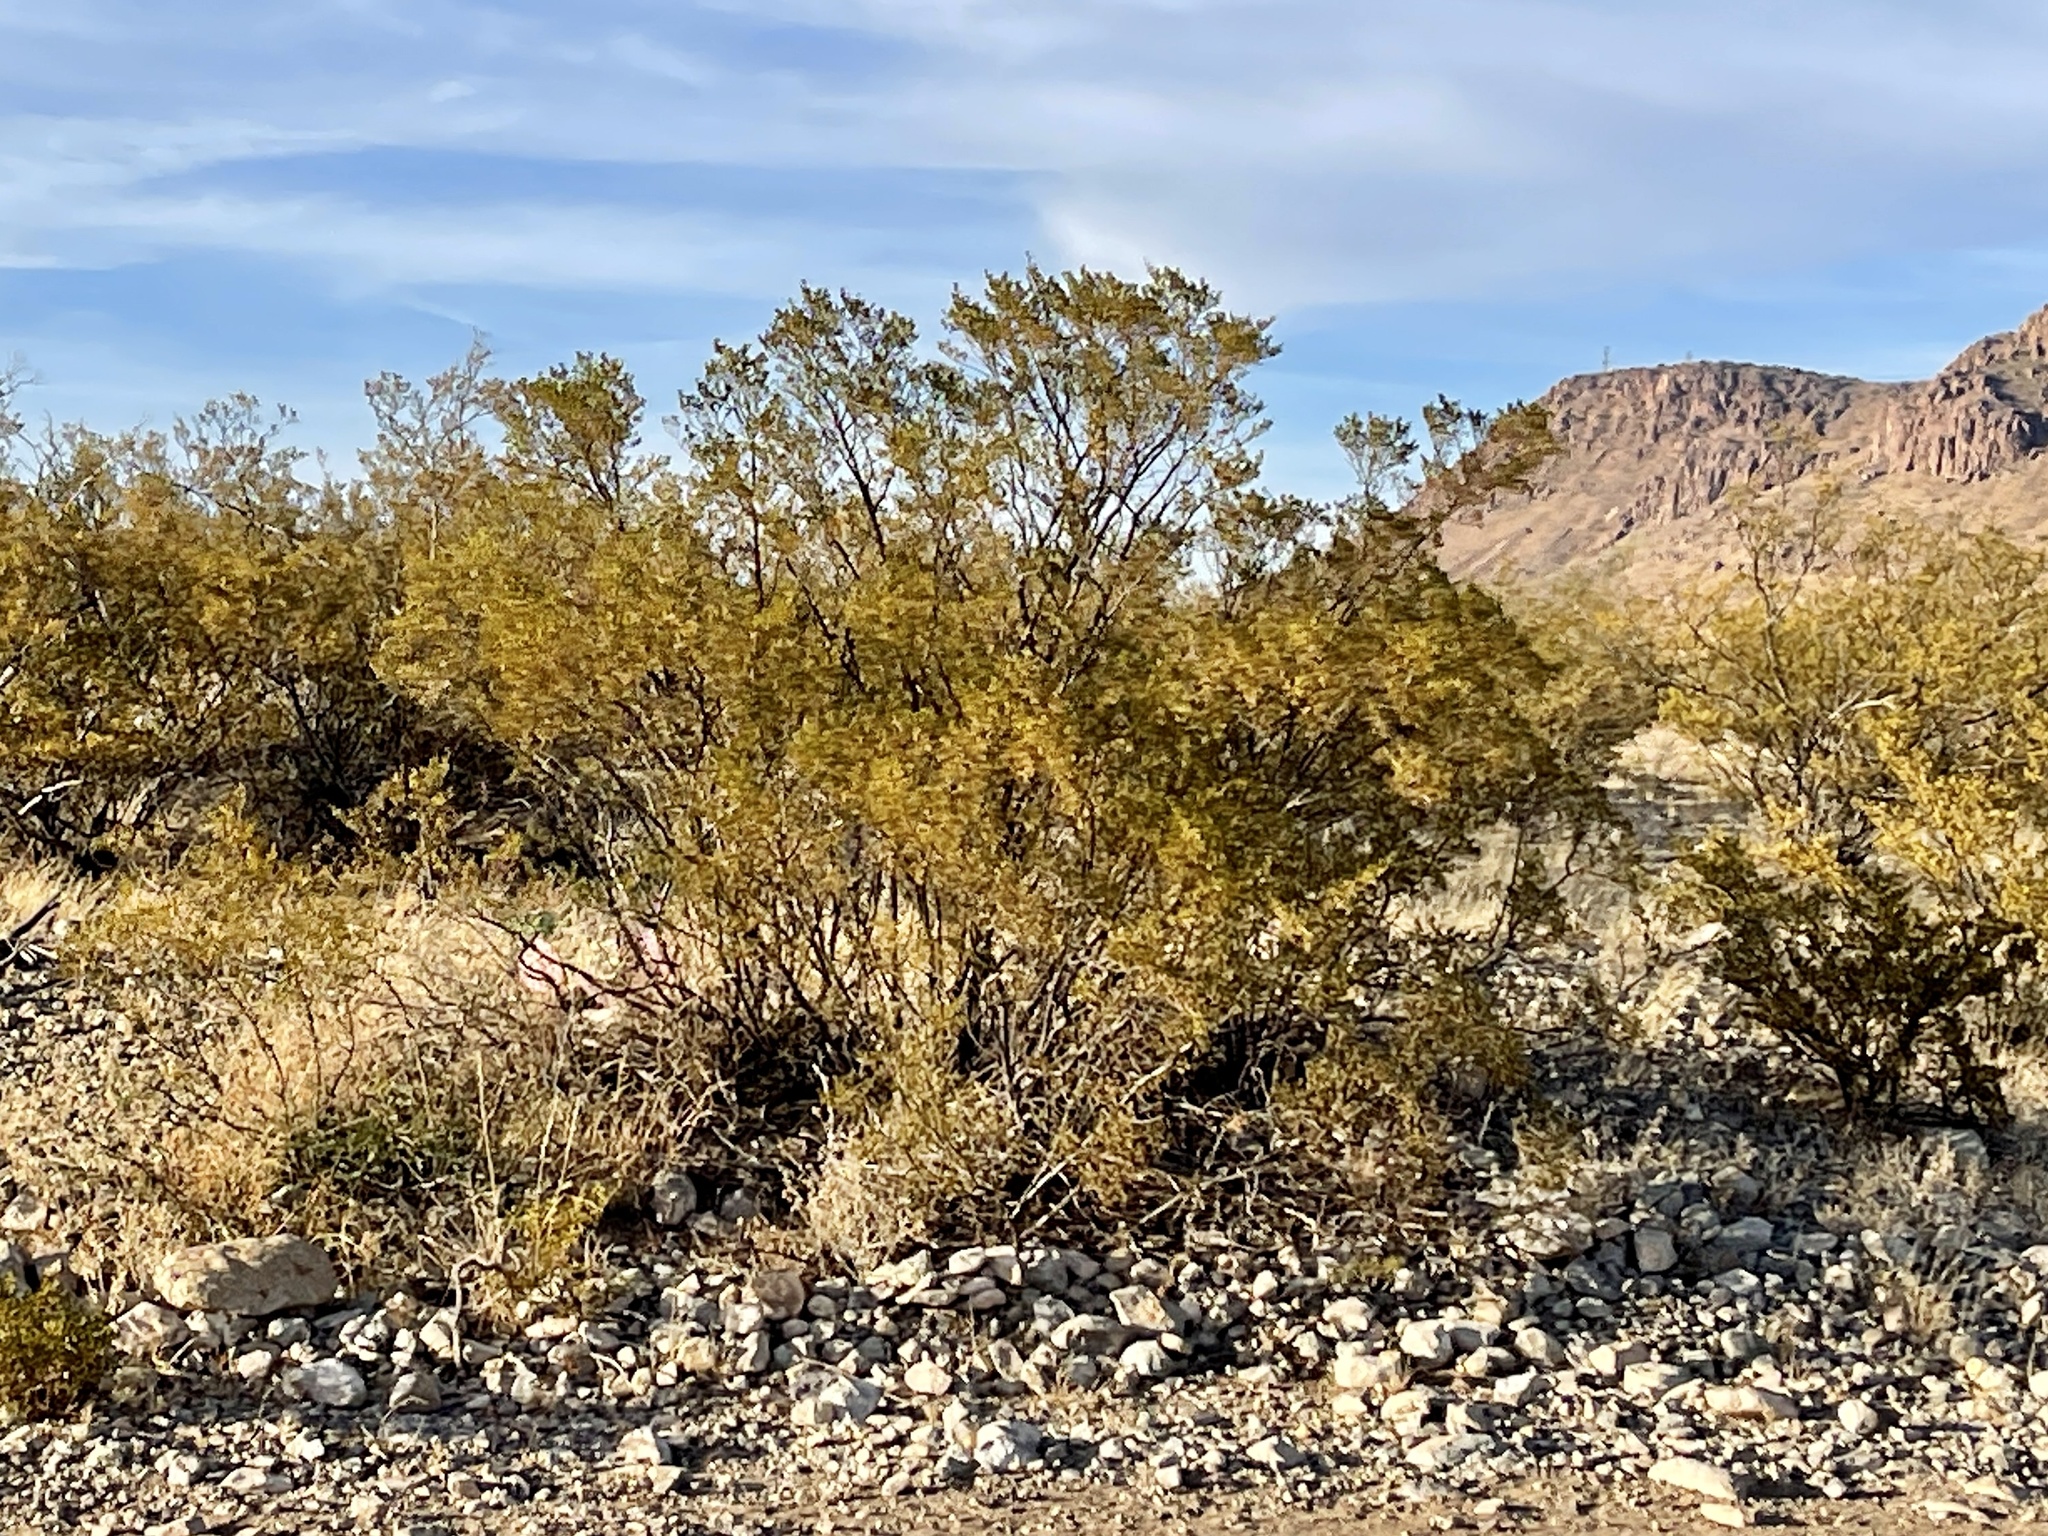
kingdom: Plantae
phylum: Tracheophyta
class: Magnoliopsida
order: Zygophyllales
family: Zygophyllaceae
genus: Larrea
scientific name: Larrea tridentata
